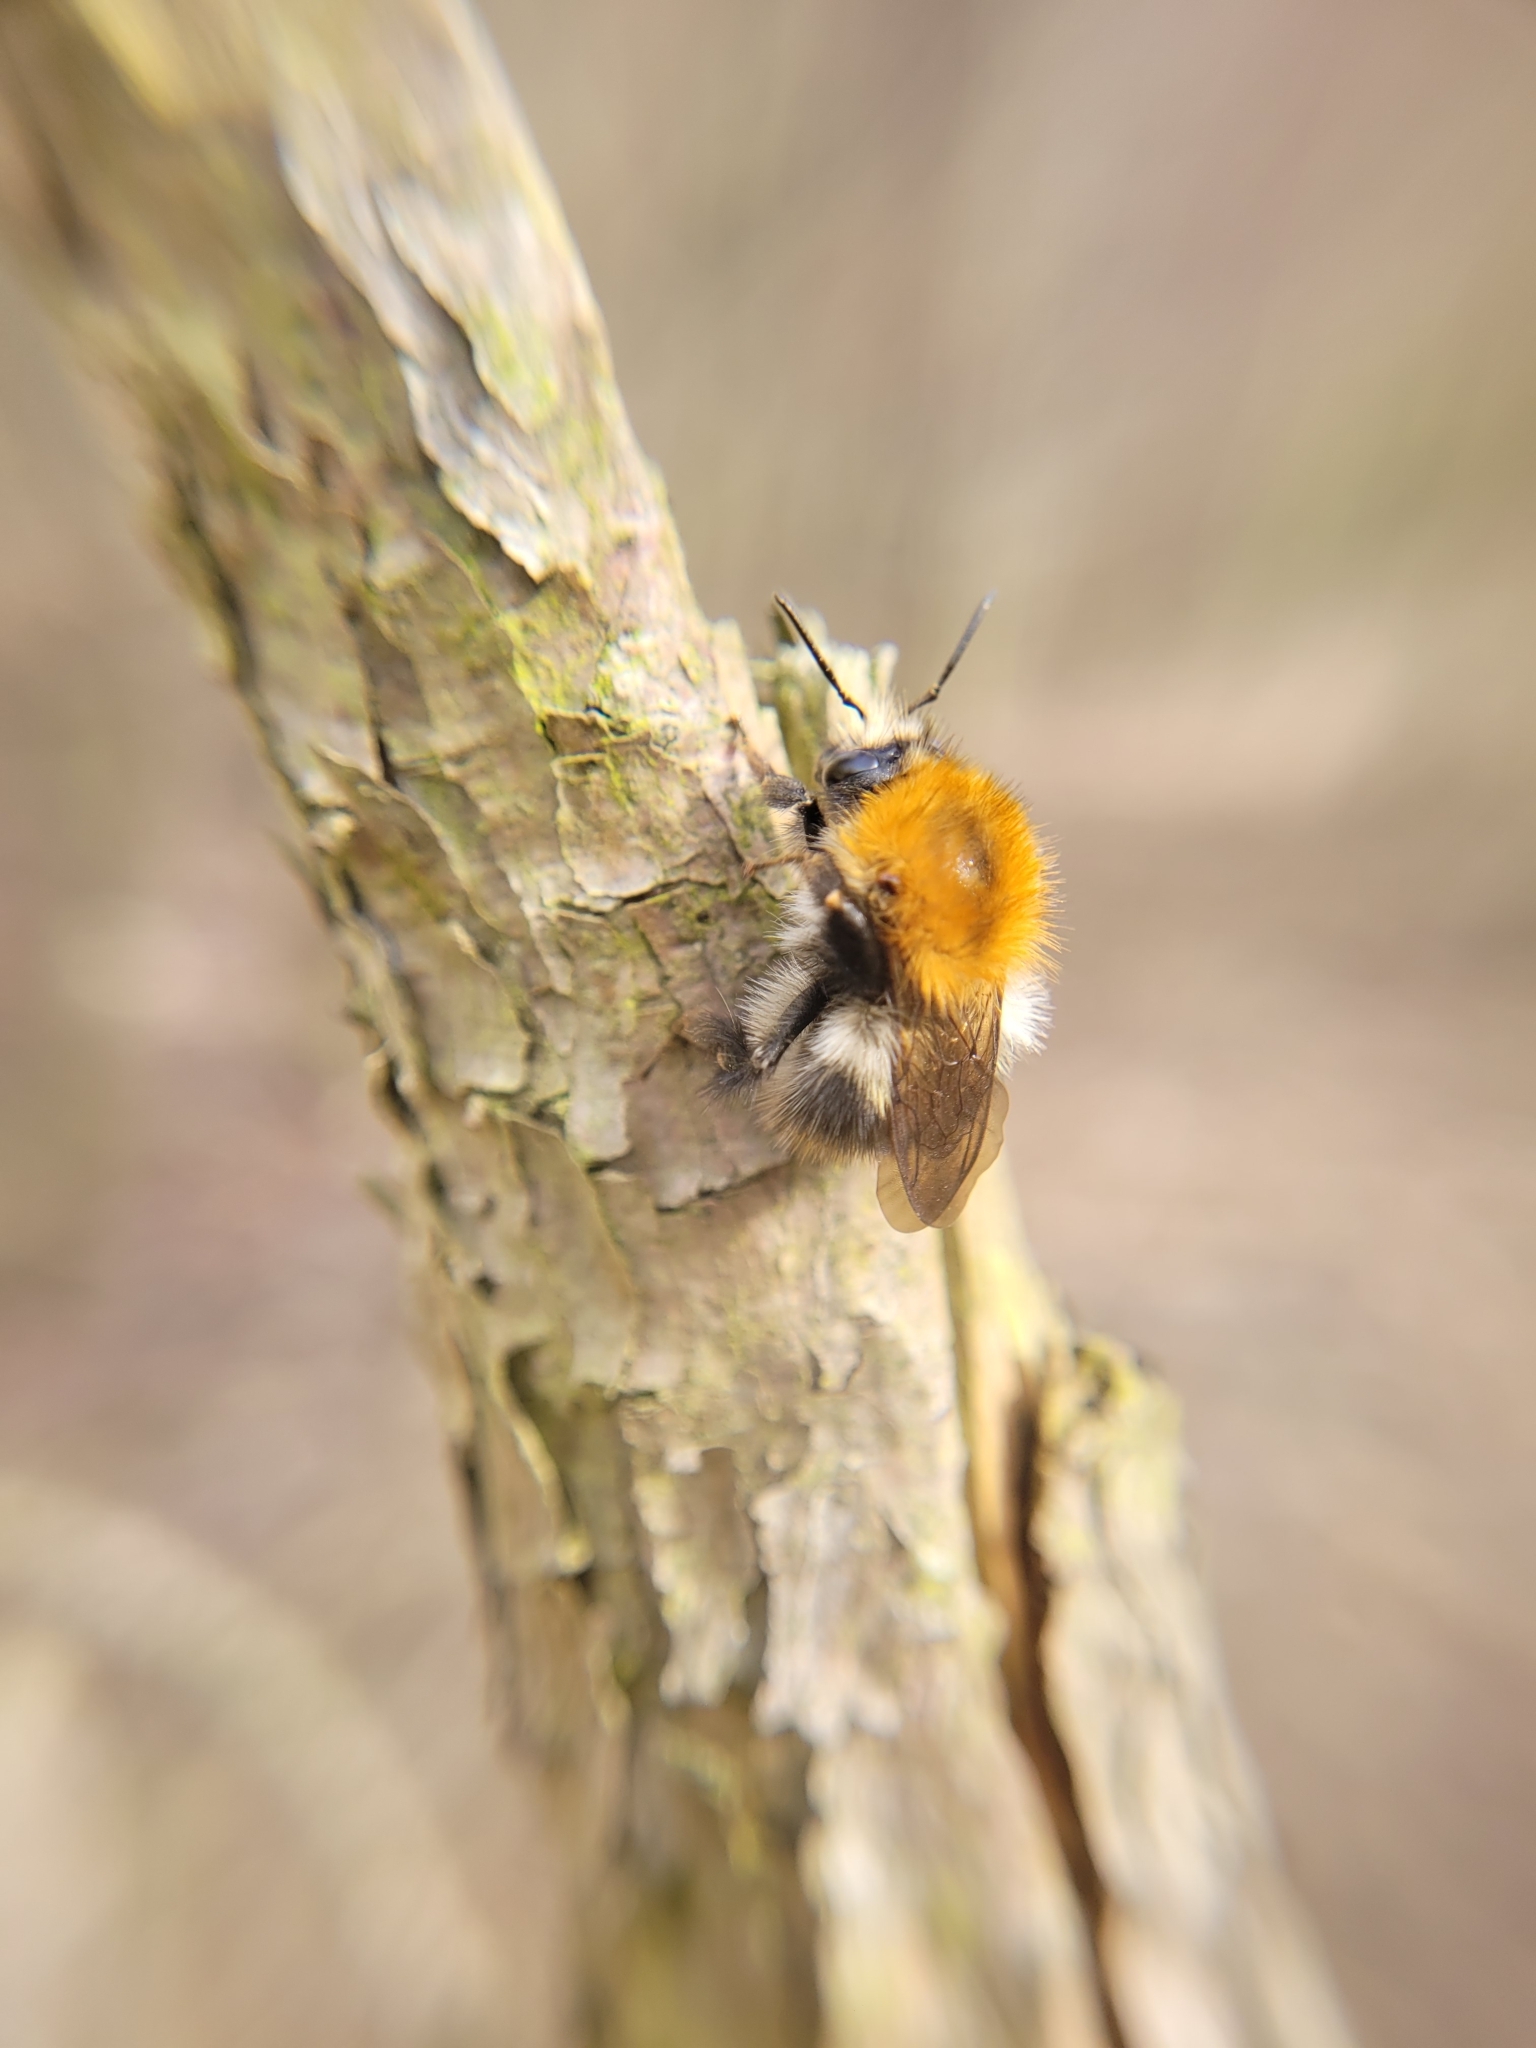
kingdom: Animalia
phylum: Arthropoda
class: Insecta
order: Hymenoptera
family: Apidae
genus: Bombus
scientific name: Bombus pascuorum
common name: Common carder bee
